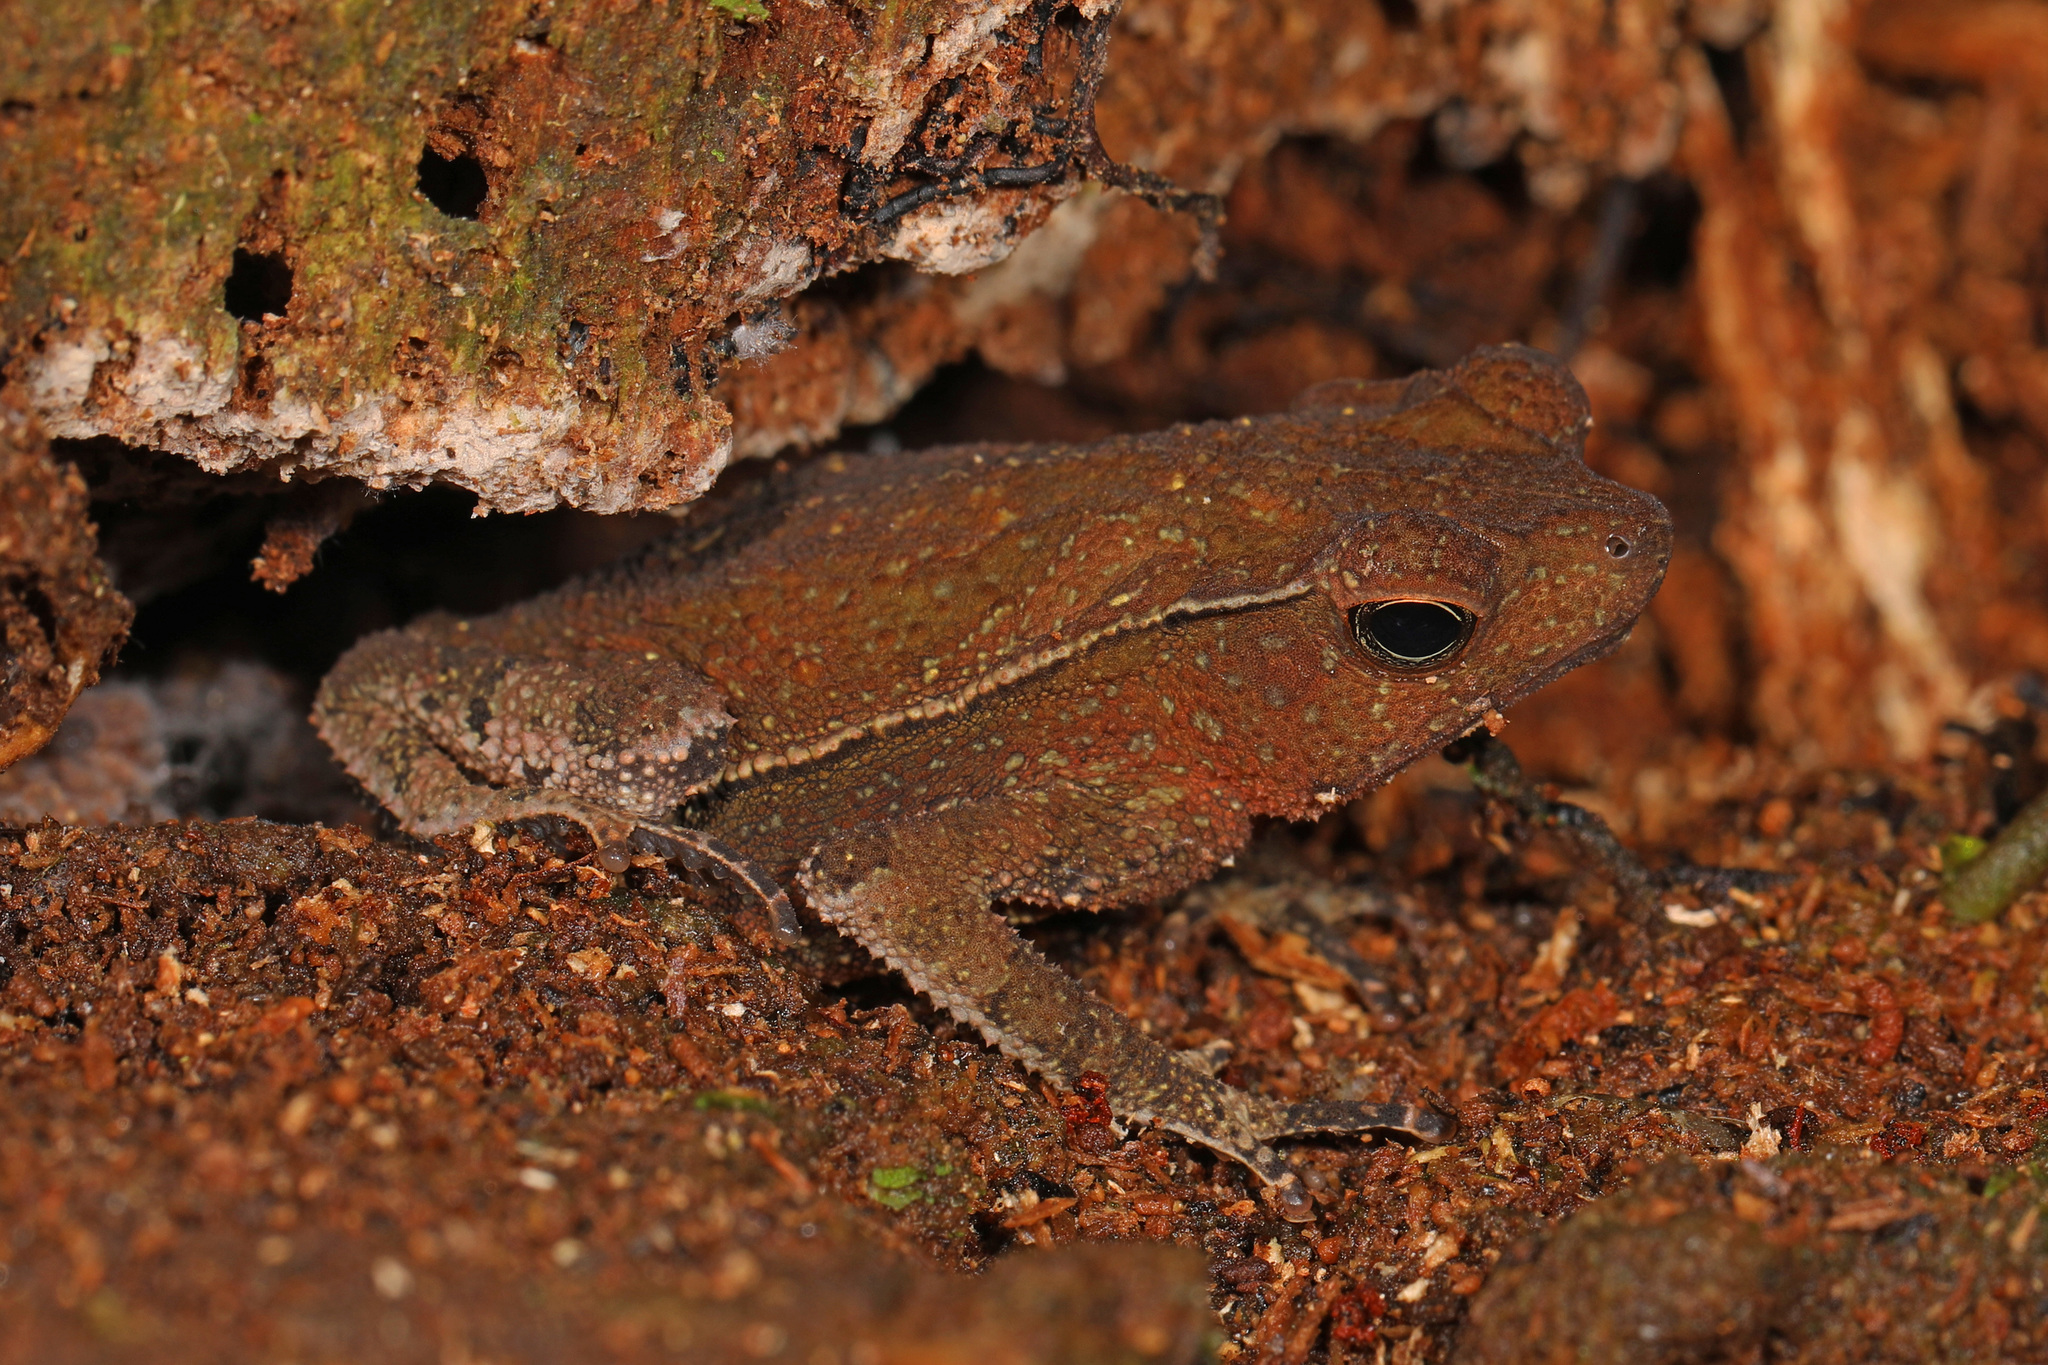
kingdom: Animalia
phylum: Chordata
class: Amphibia
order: Anura
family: Bufonidae
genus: Rhinella
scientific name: Rhinella margaritifera
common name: Mitred toad
